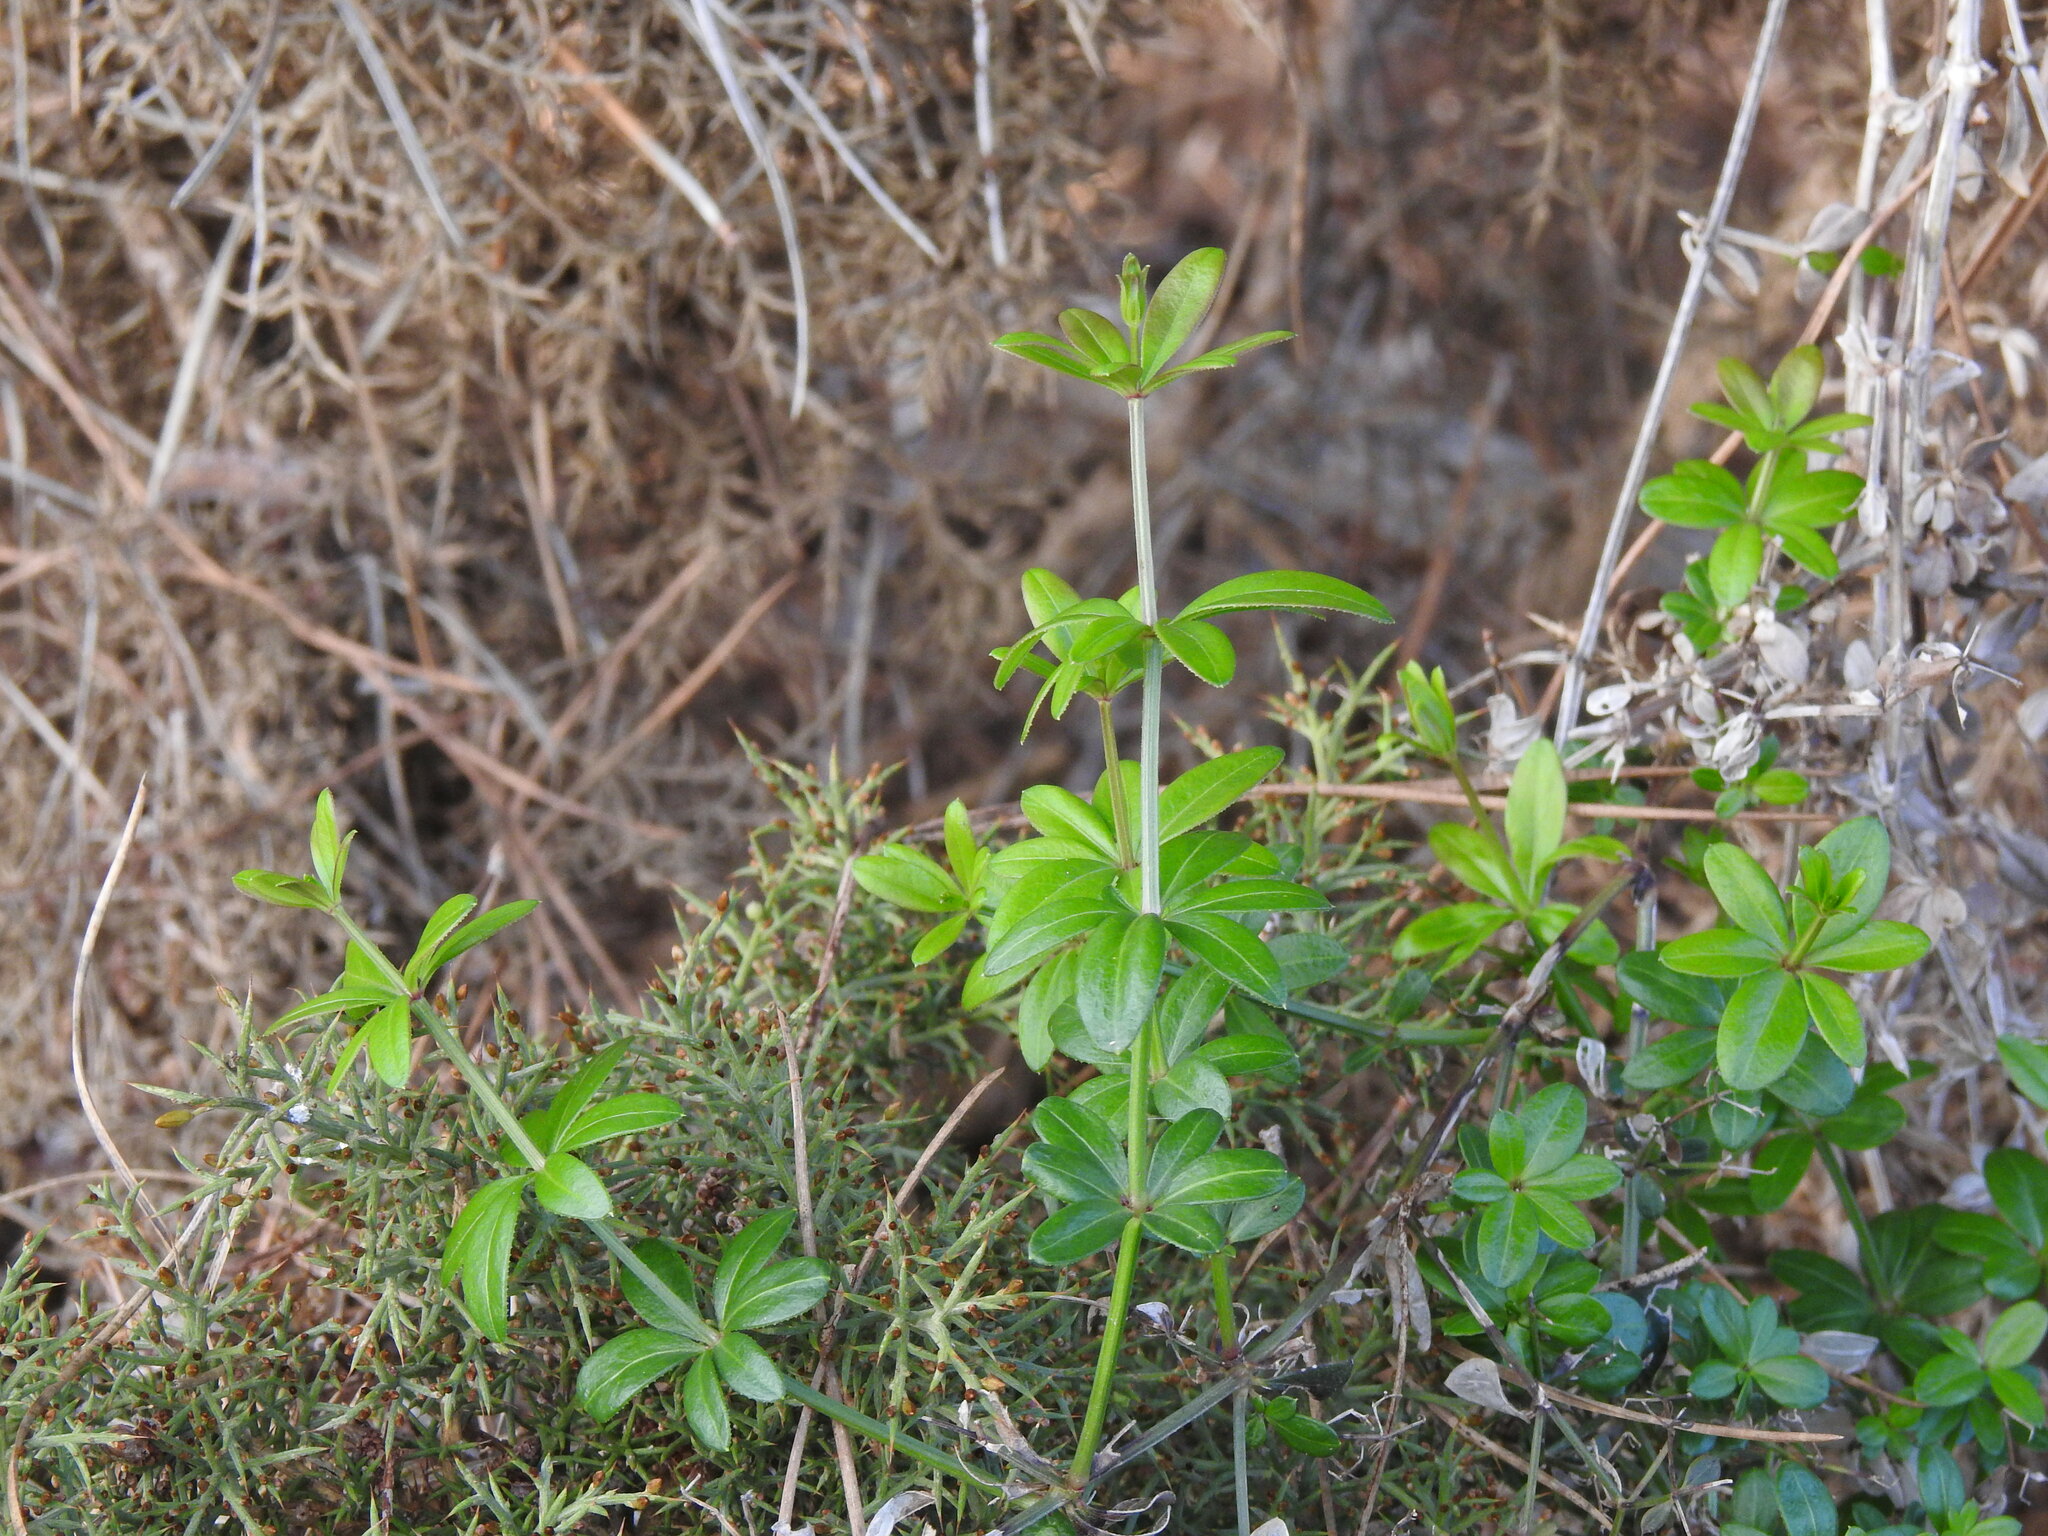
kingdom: Plantae
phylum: Tracheophyta
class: Magnoliopsida
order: Gentianales
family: Rubiaceae
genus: Rubia
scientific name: Rubia peregrina
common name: Wild madder
